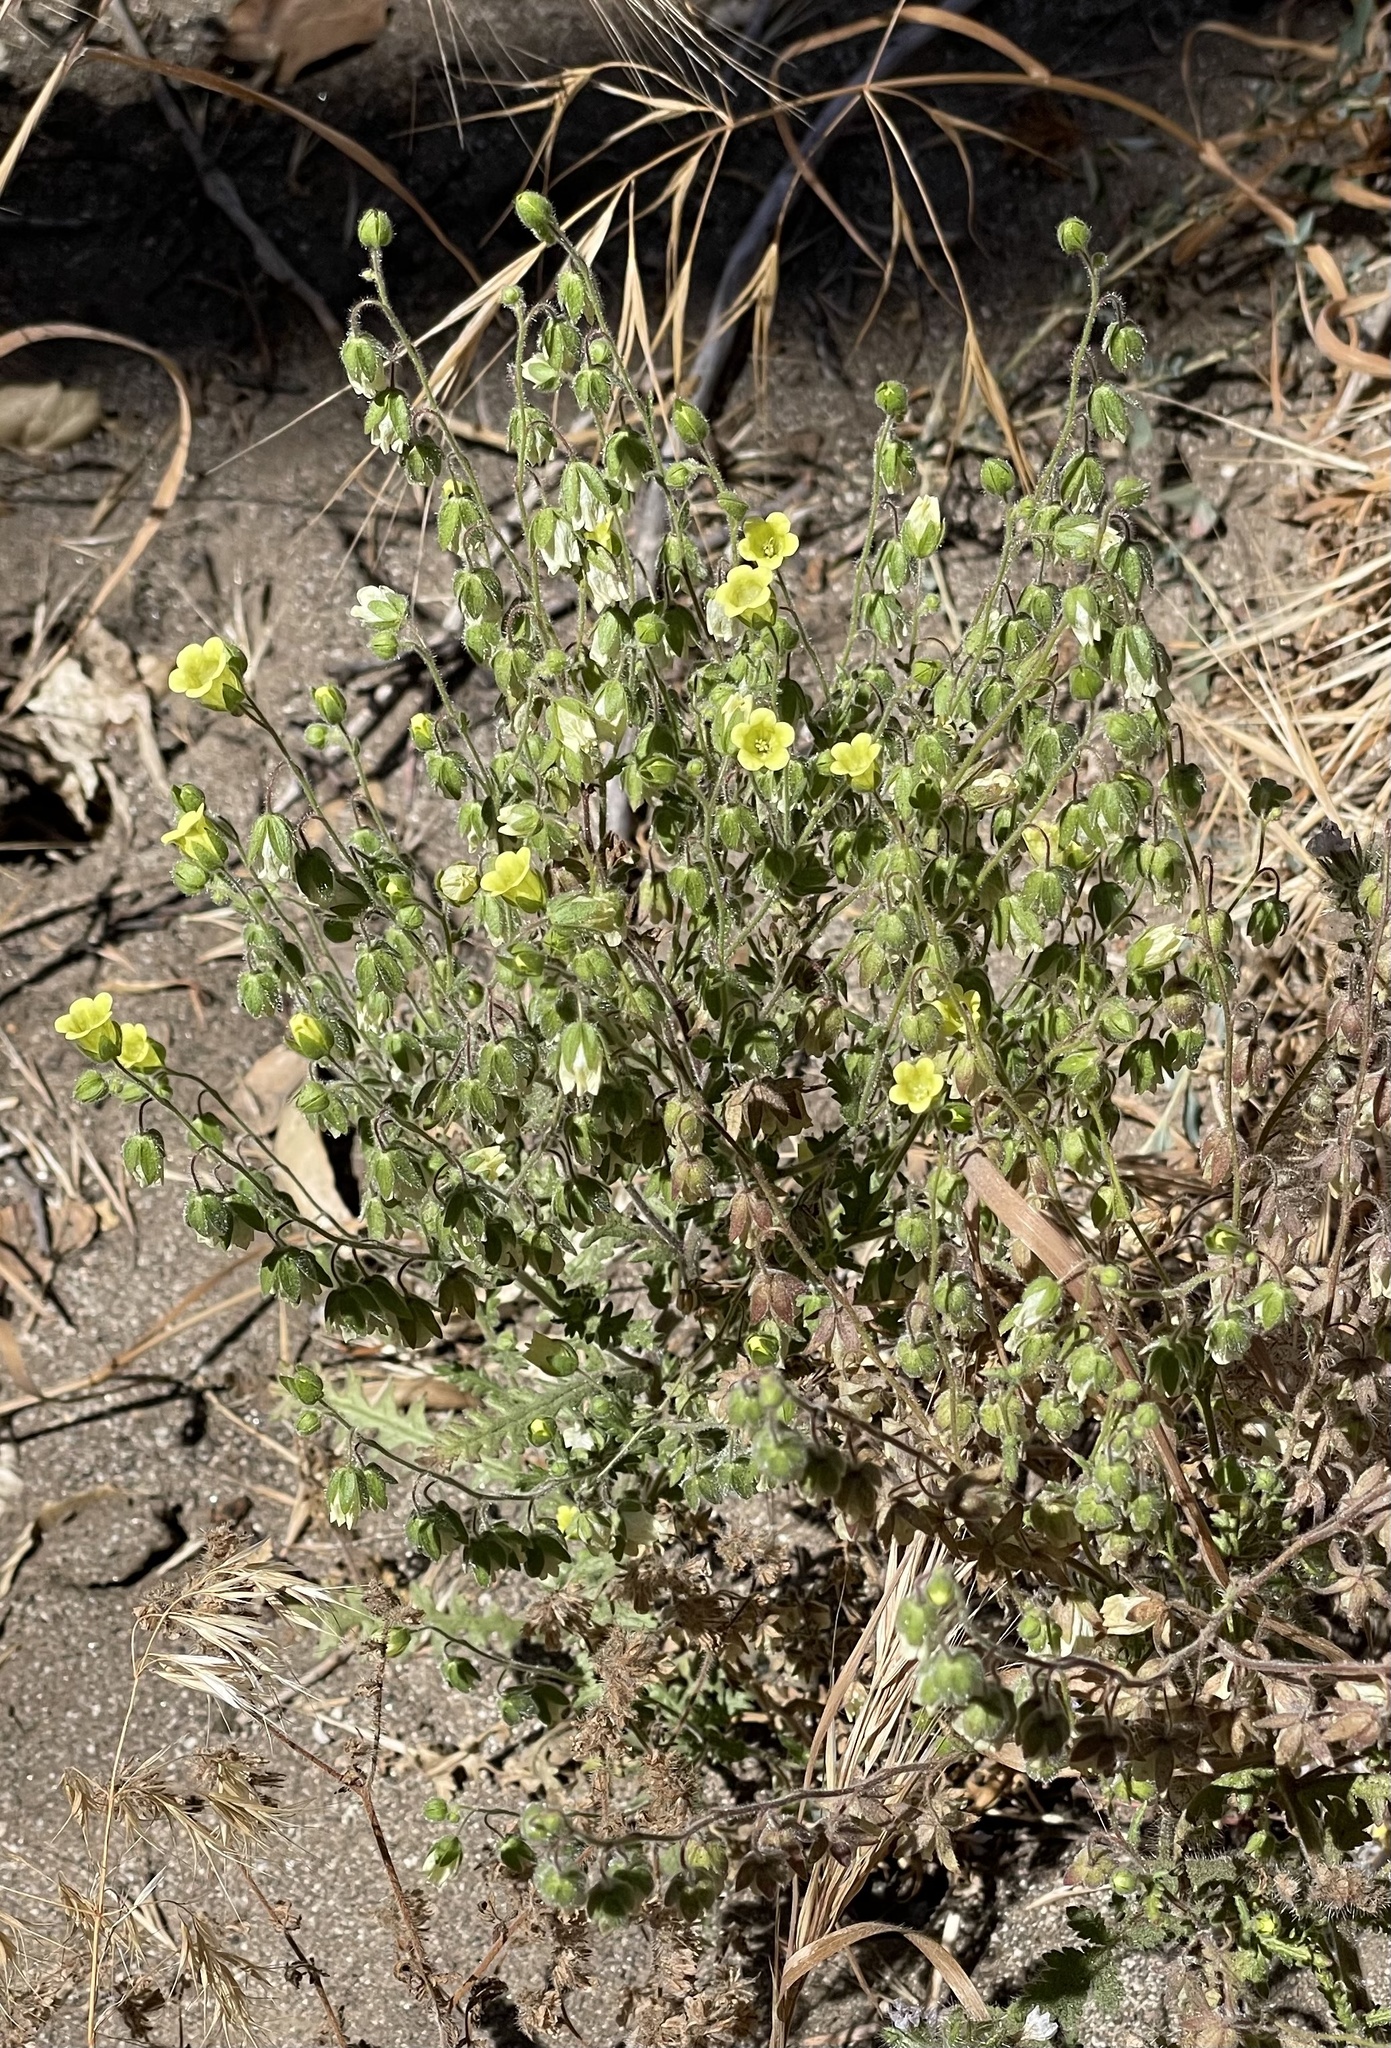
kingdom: Plantae
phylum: Tracheophyta
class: Magnoliopsida
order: Boraginales
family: Hydrophyllaceae
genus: Emmenanthe
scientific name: Emmenanthe penduliflora
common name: Whispering-bells
